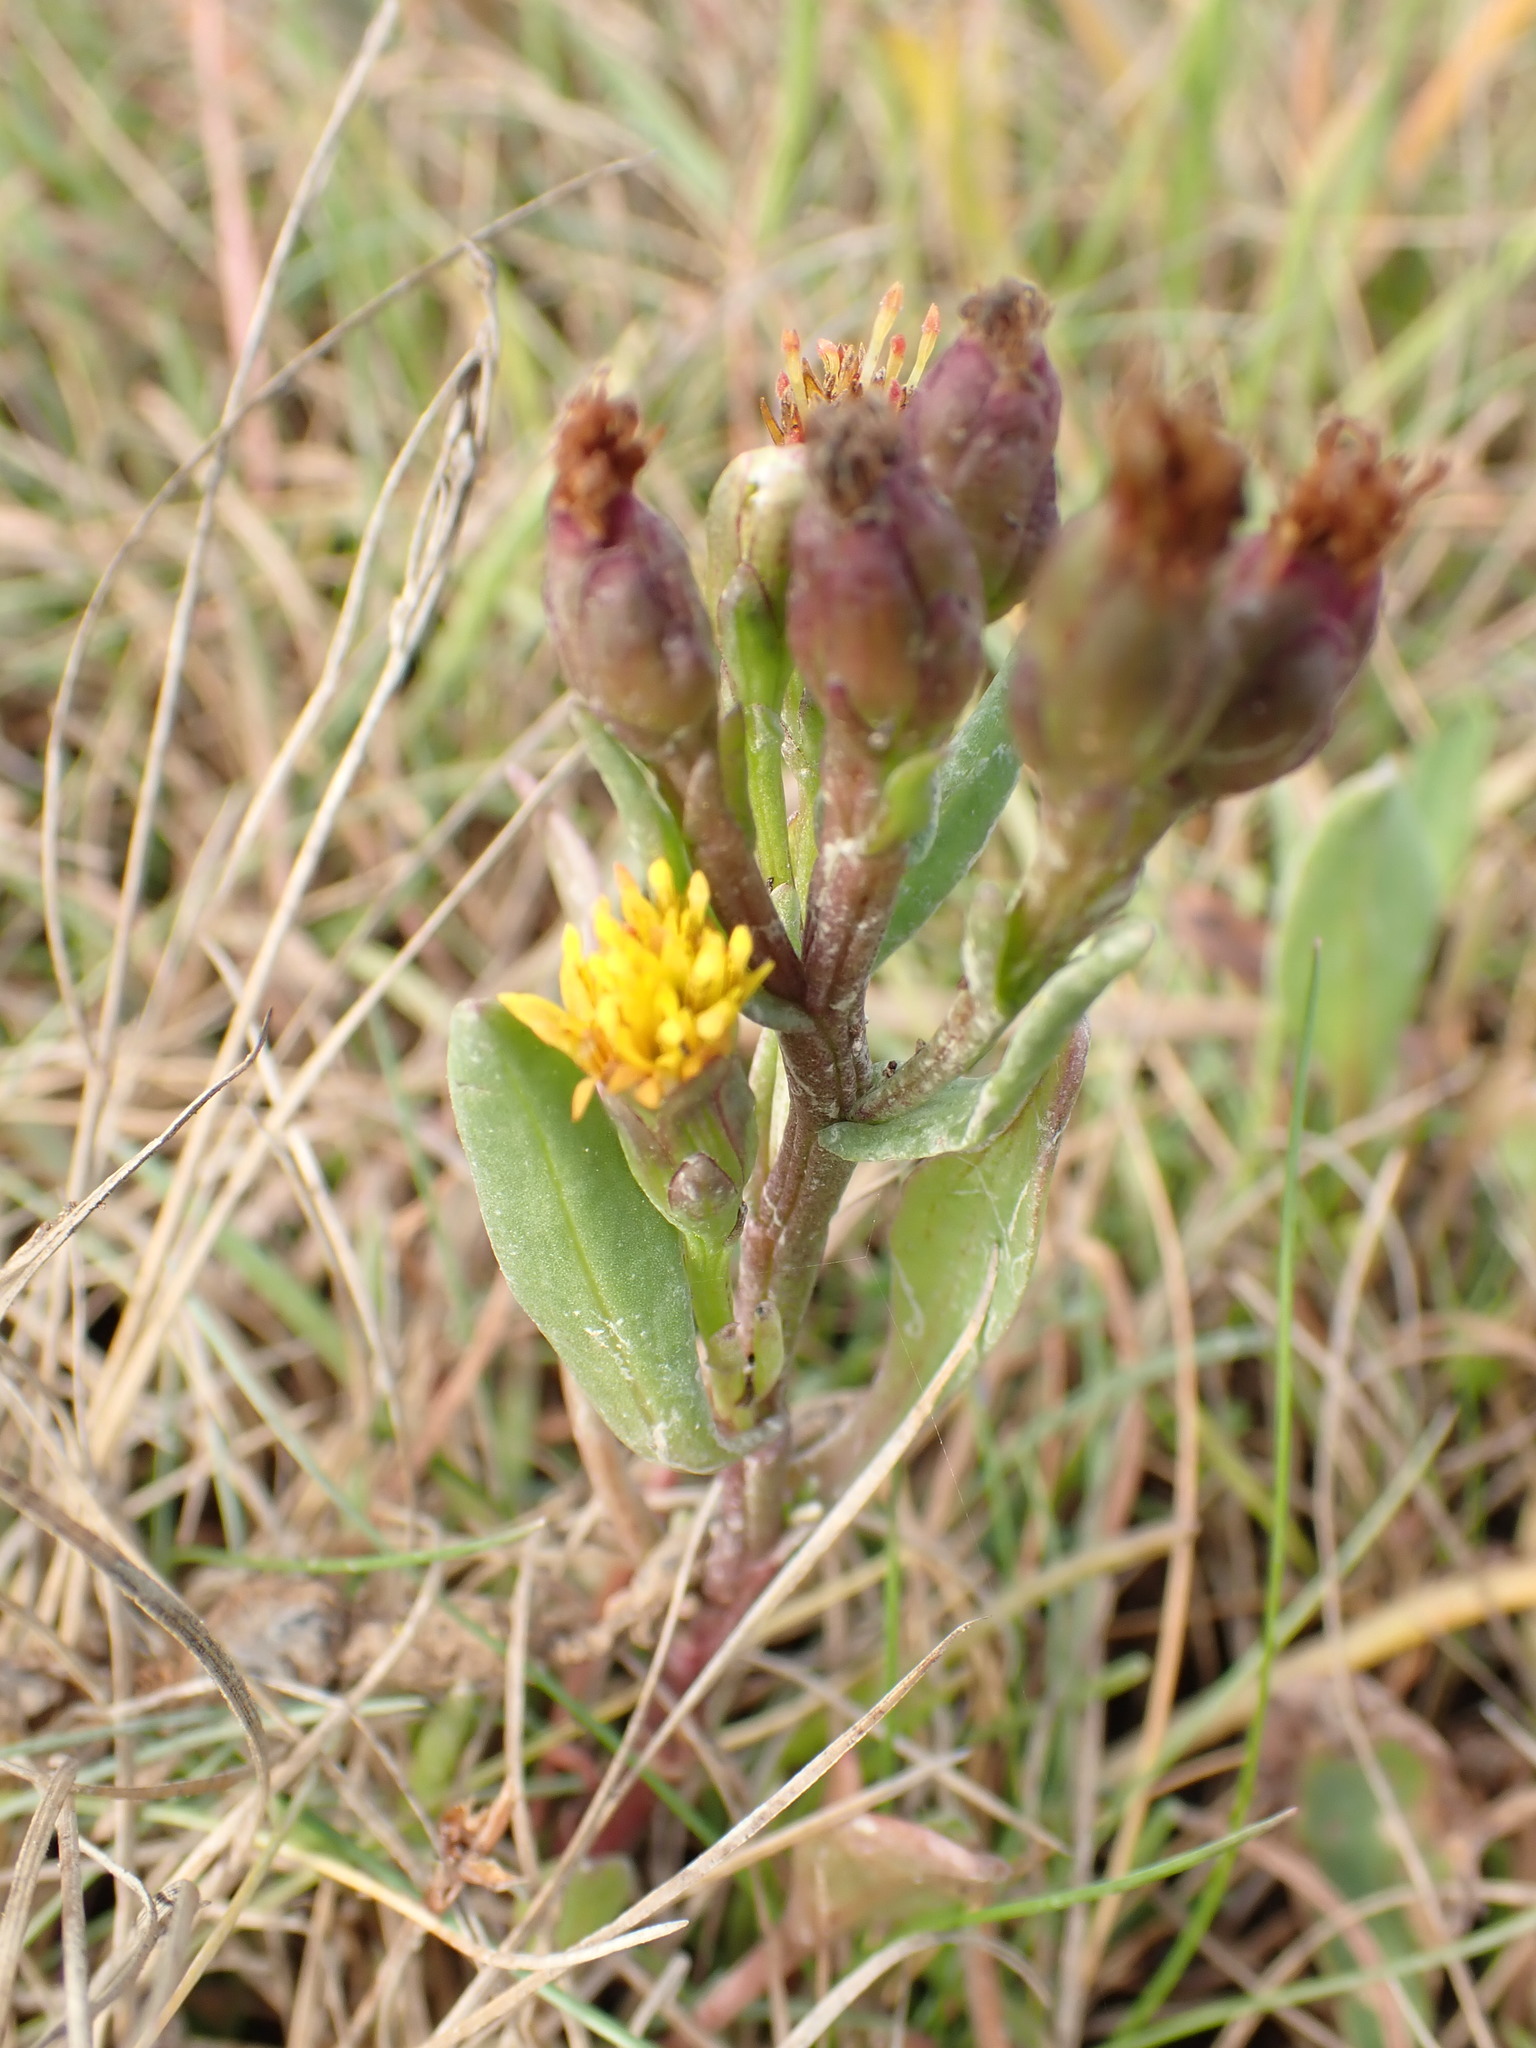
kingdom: Plantae
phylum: Tracheophyta
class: Magnoliopsida
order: Asterales
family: Asteraceae
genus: Tripolium
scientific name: Tripolium pannonicum
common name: Sea aster
